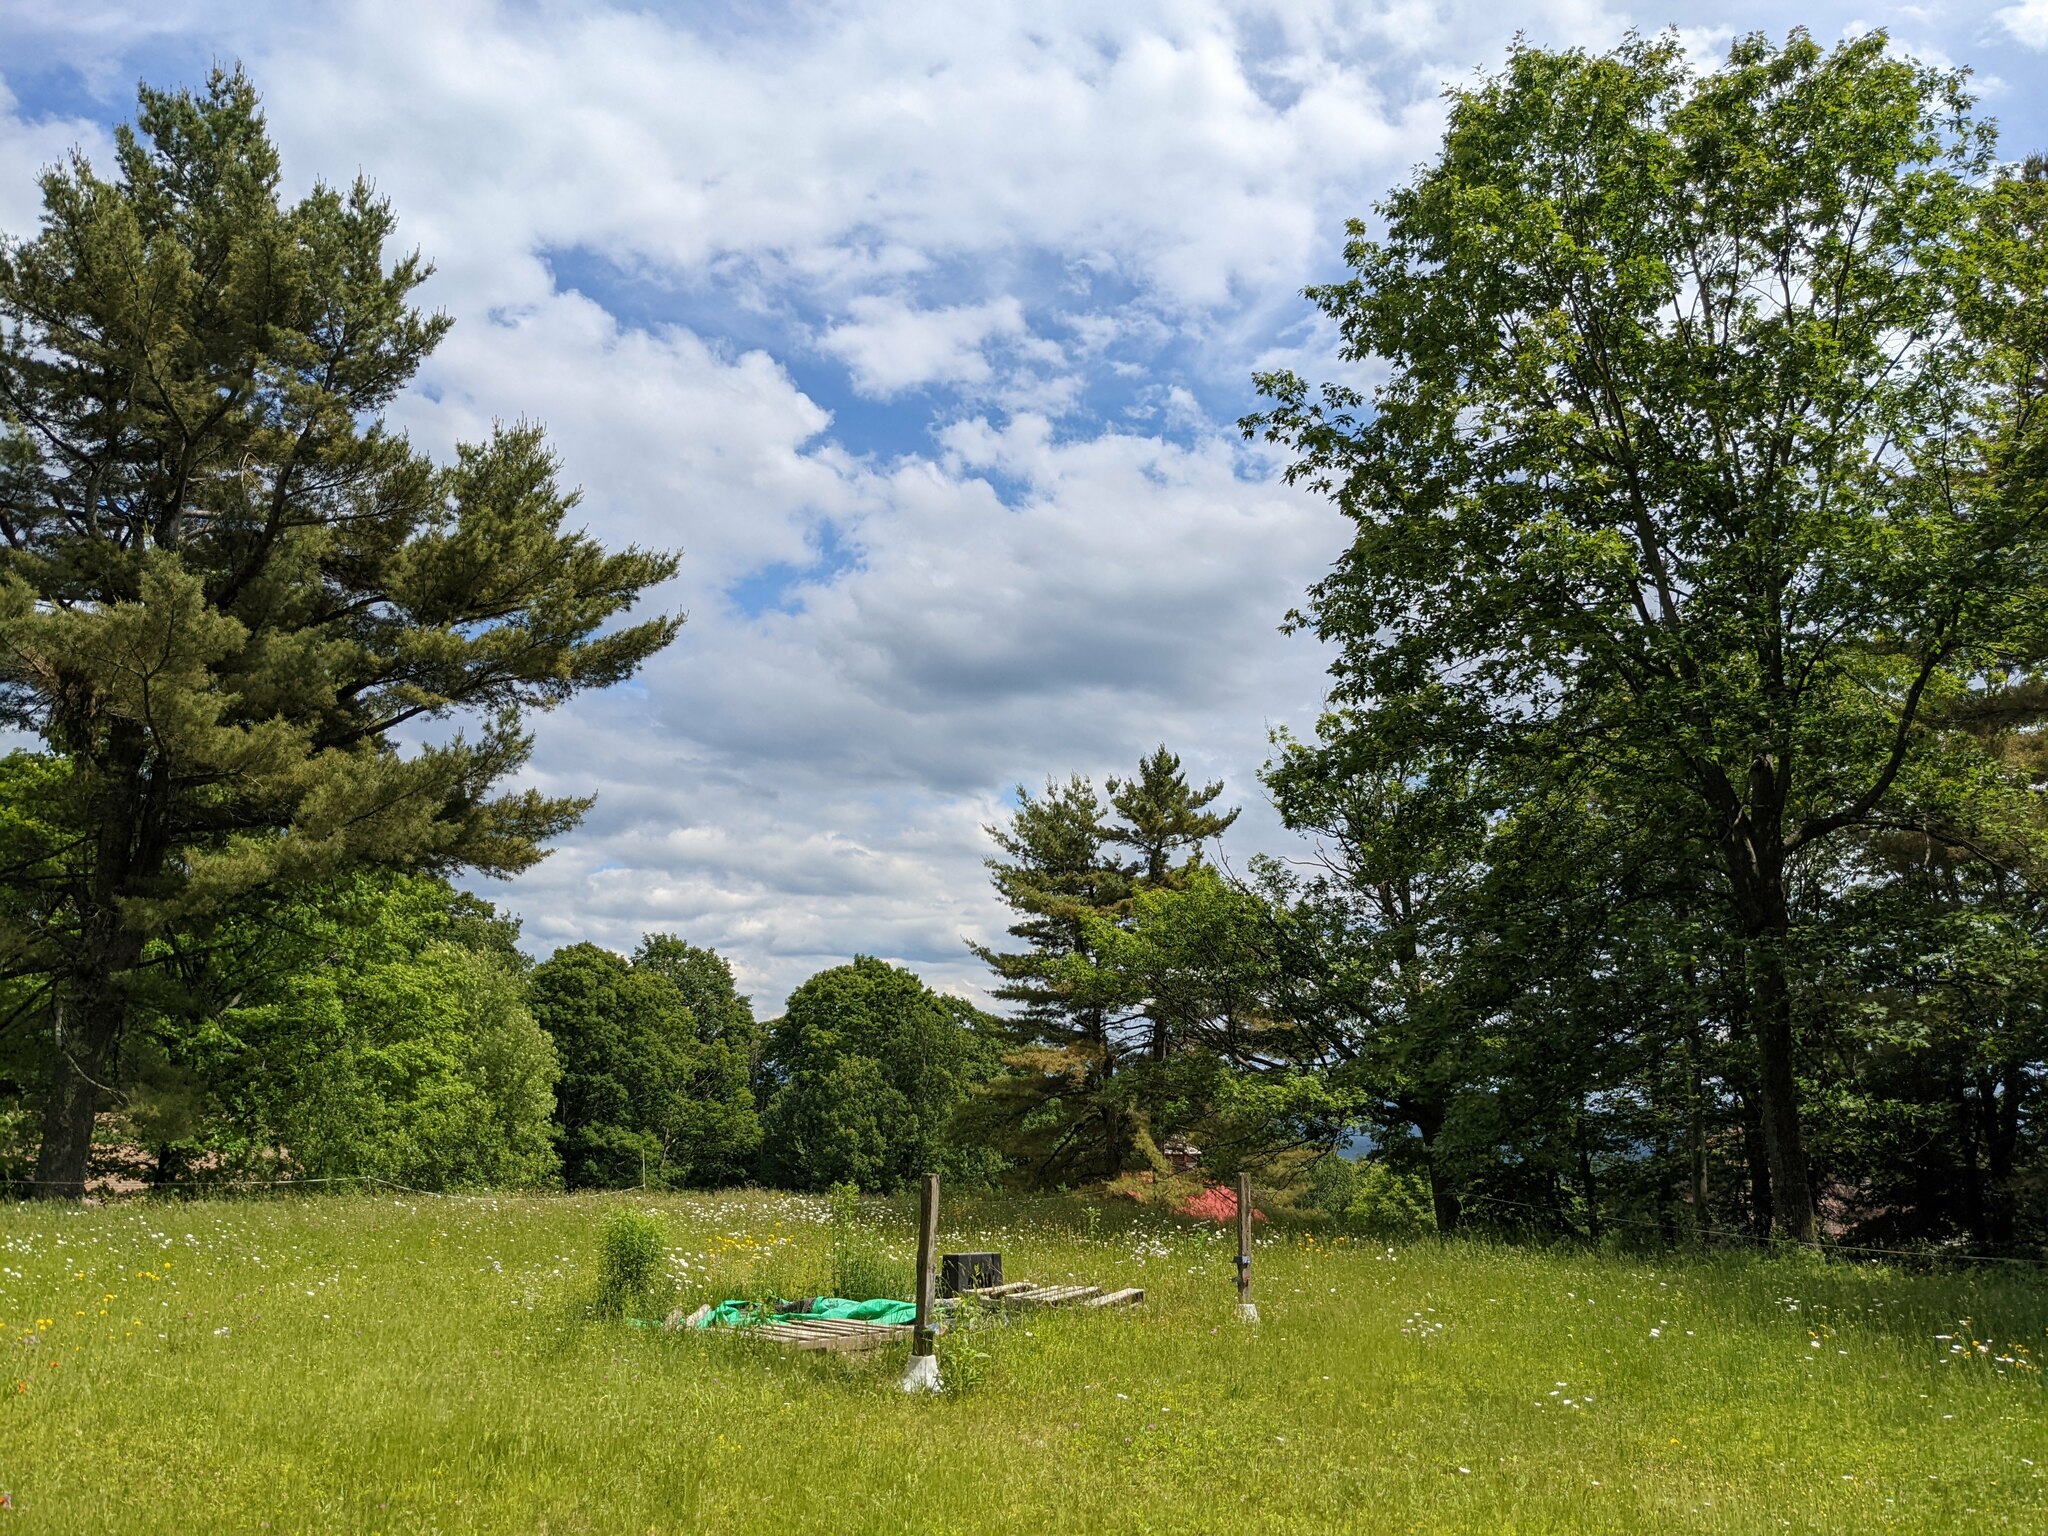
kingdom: Plantae
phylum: Tracheophyta
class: Pinopsida
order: Pinales
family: Pinaceae
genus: Pinus
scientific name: Pinus strobus
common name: Weymouth pine
